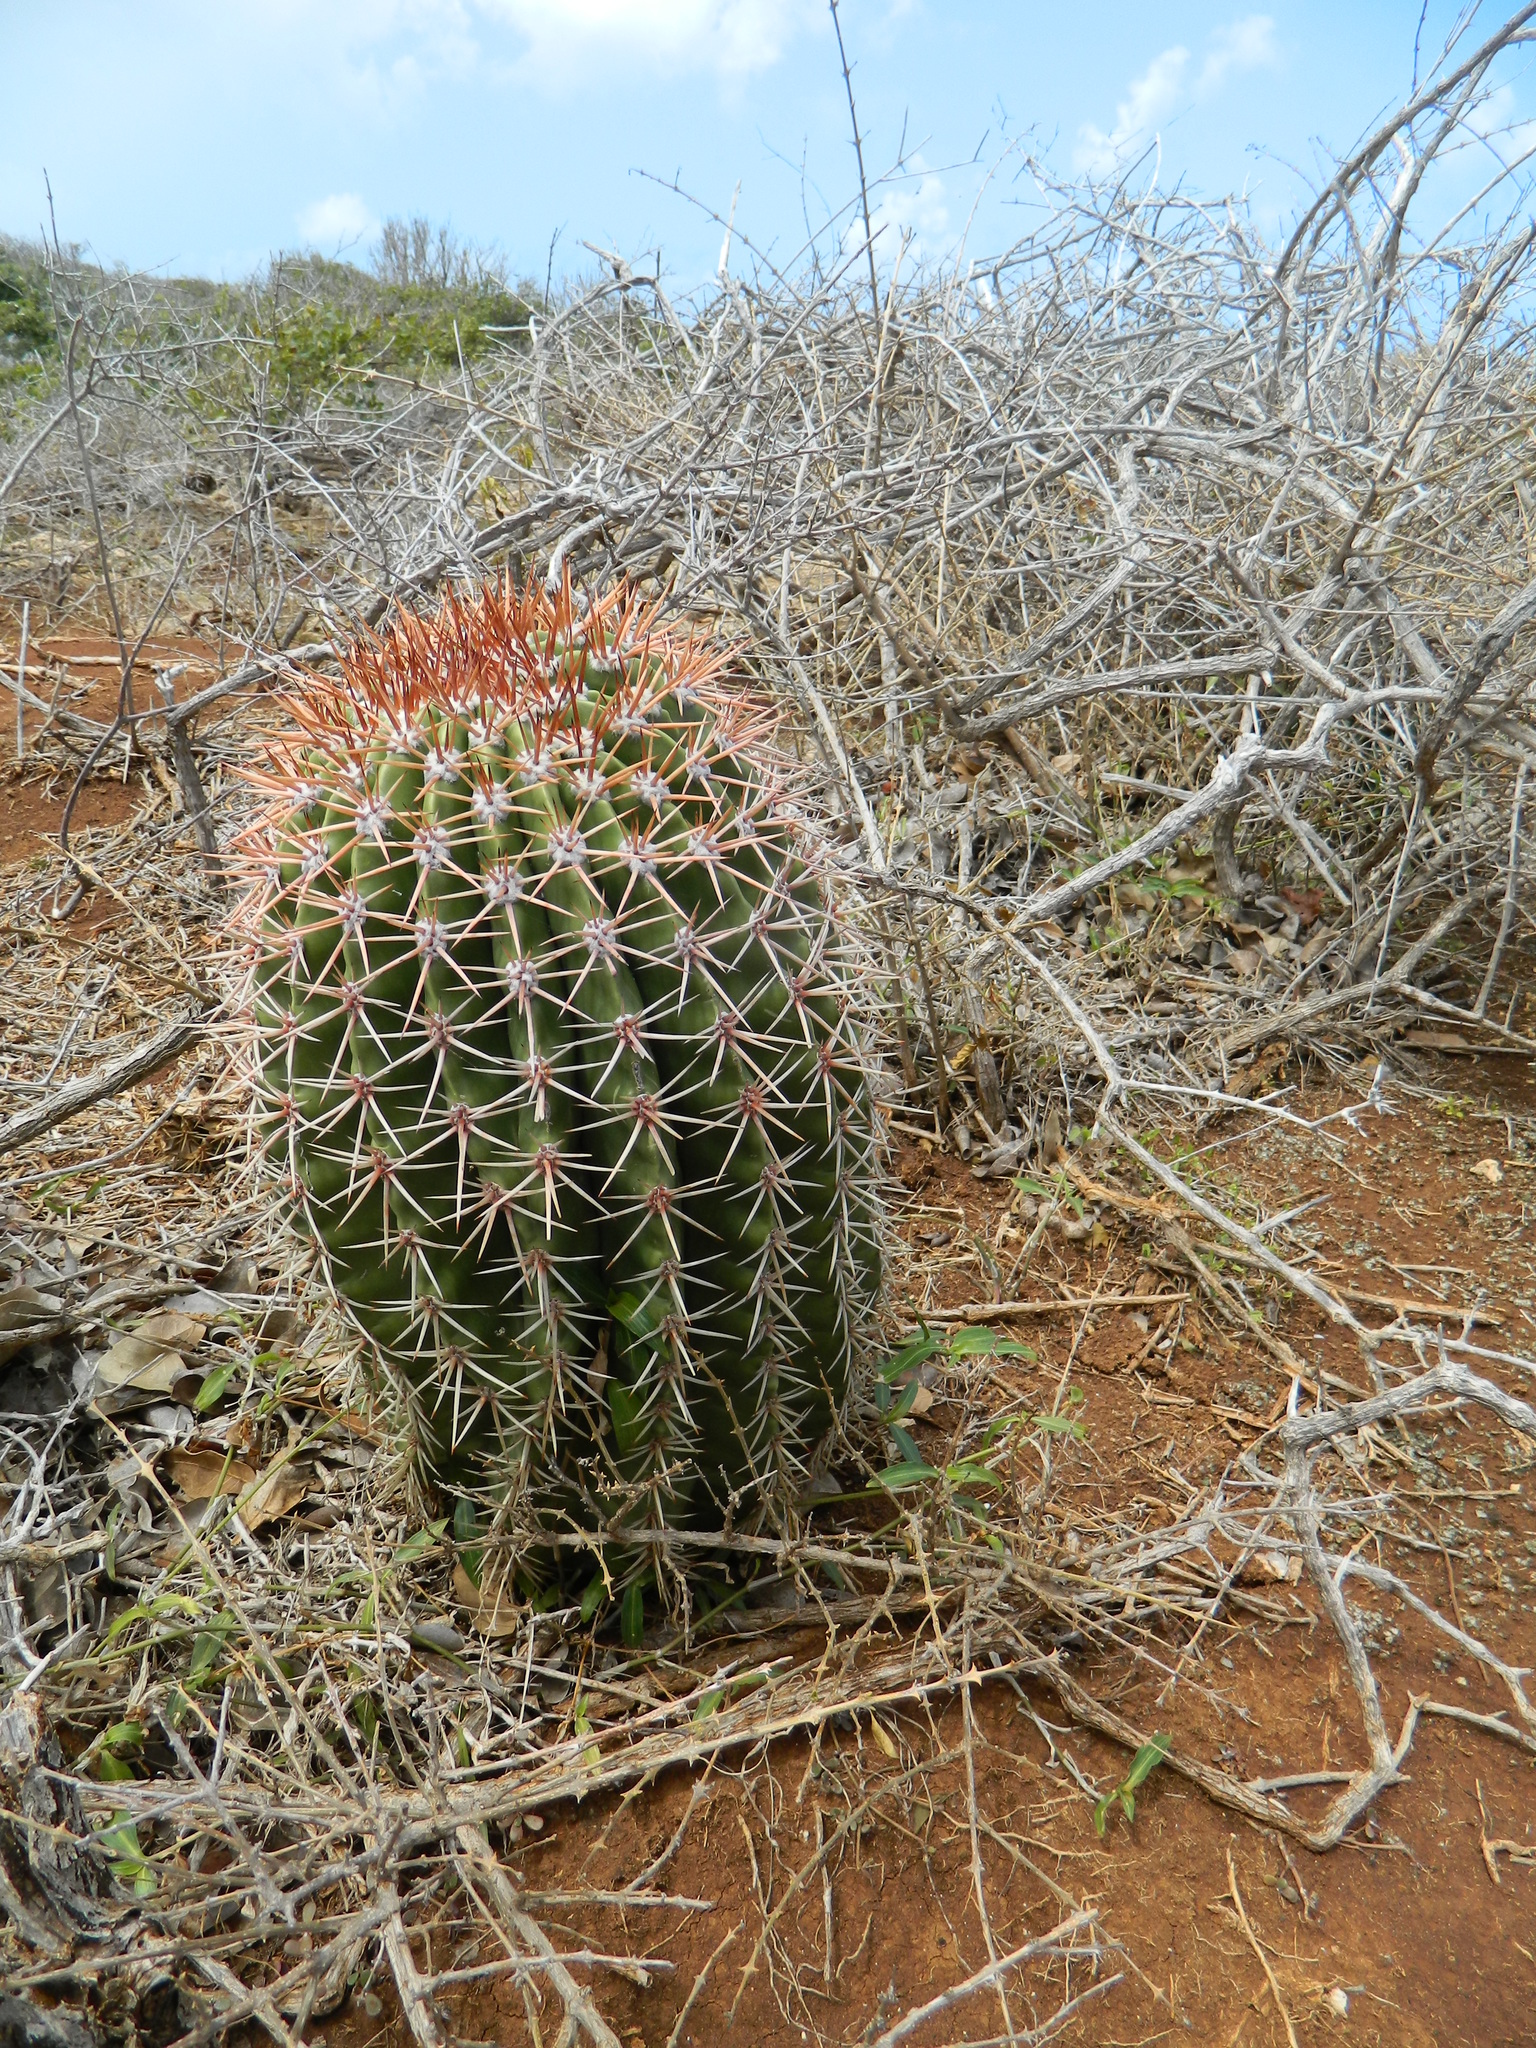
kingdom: Plantae
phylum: Tracheophyta
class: Magnoliopsida
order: Caryophyllales
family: Cactaceae
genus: Melocactus
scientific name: Melocactus intortus
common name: Barrel cactus
